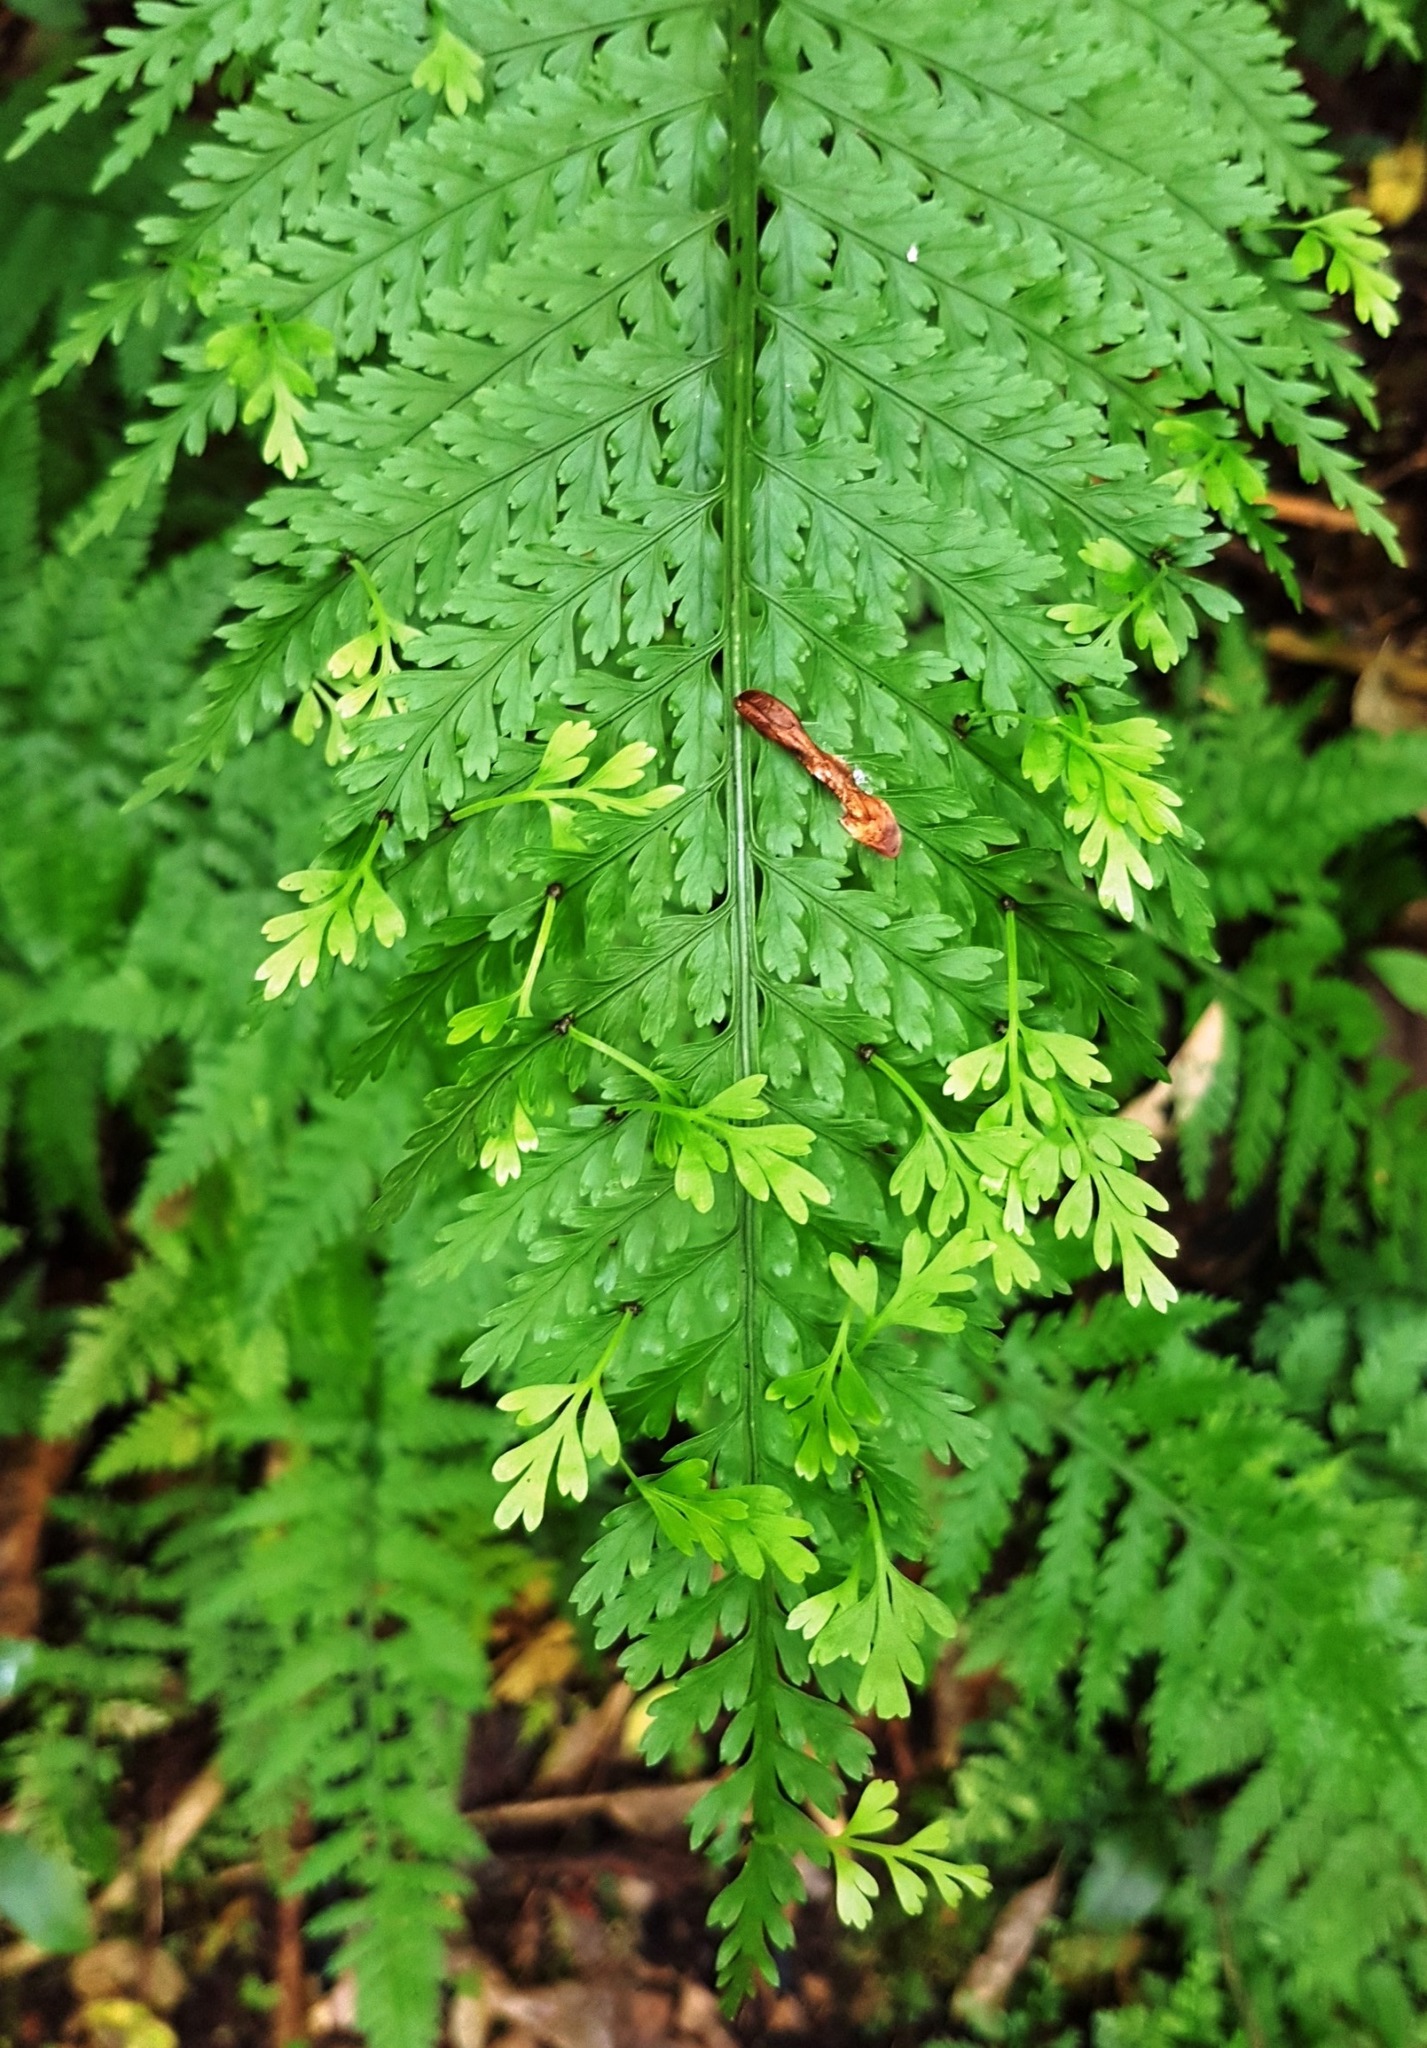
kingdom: Plantae
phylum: Tracheophyta
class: Polypodiopsida
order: Polypodiales
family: Aspleniaceae
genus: Asplenium
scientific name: Asplenium bulbiferum
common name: Mother fern
